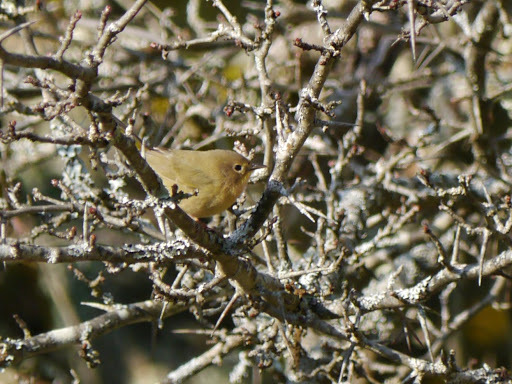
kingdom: Animalia
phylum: Chordata
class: Aves
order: Passeriformes
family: Parulidae
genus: Geothlypis
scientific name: Geothlypis trichas
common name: Common yellowthroat
